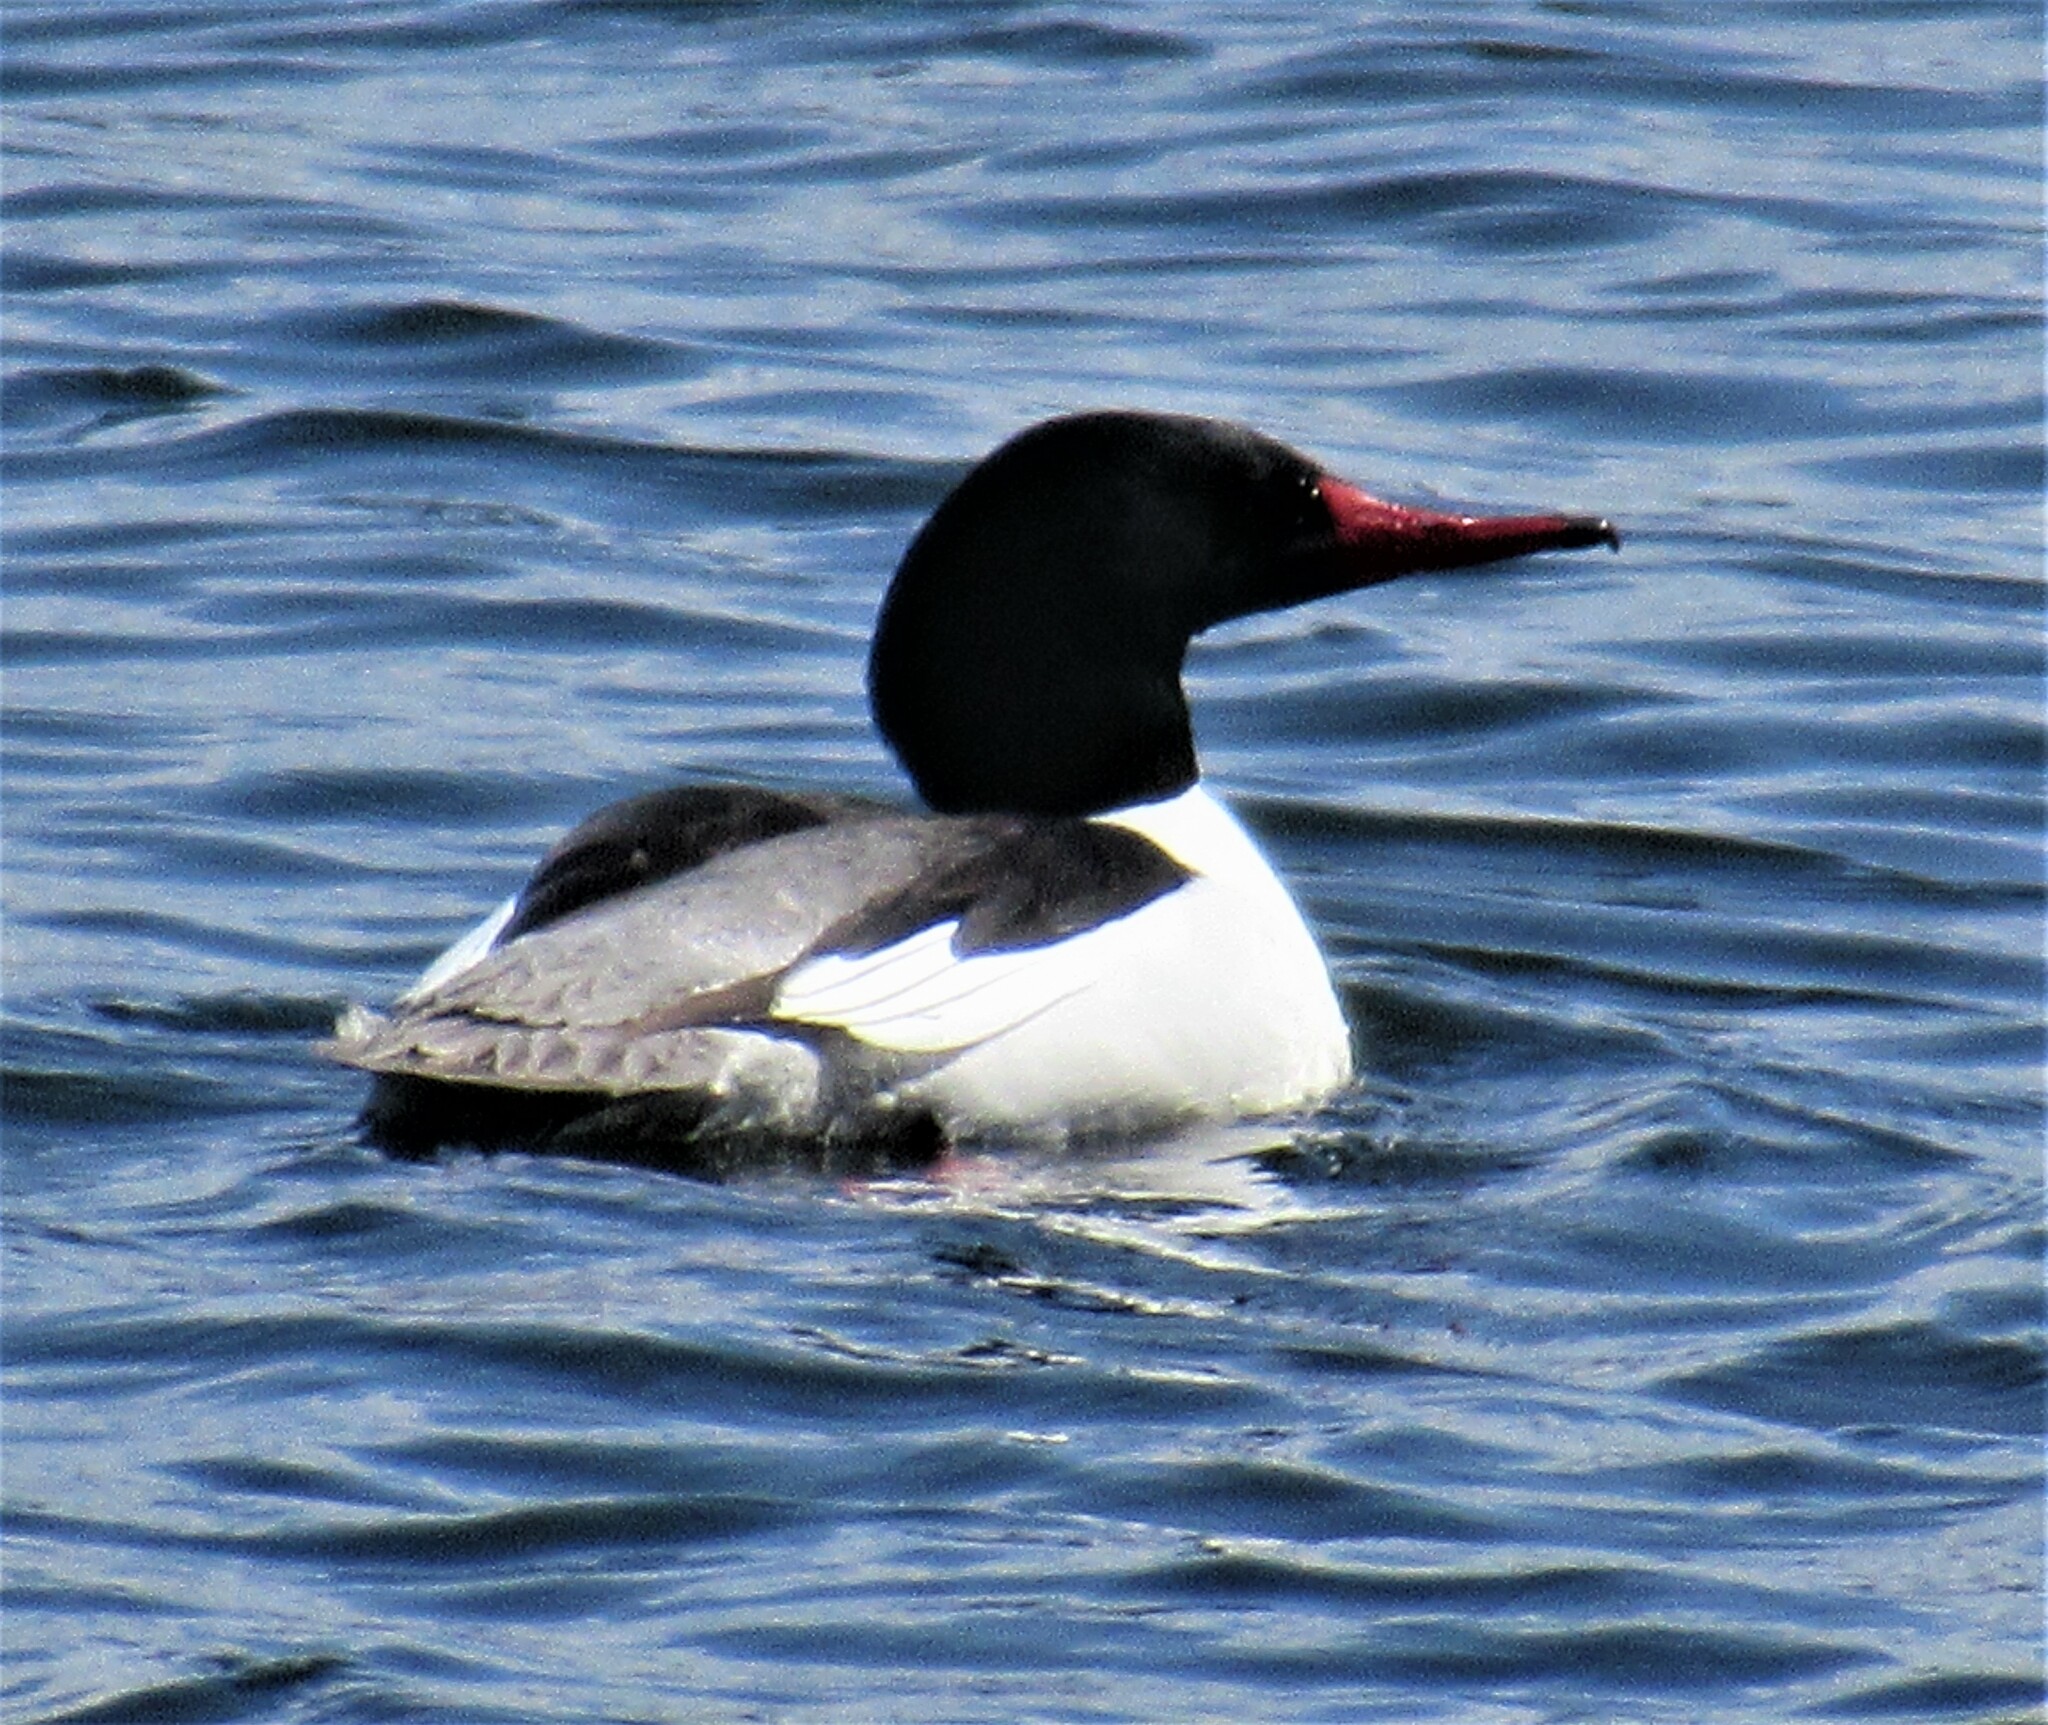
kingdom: Animalia
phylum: Chordata
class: Aves
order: Anseriformes
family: Anatidae
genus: Mergus
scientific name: Mergus merganser
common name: Common merganser
